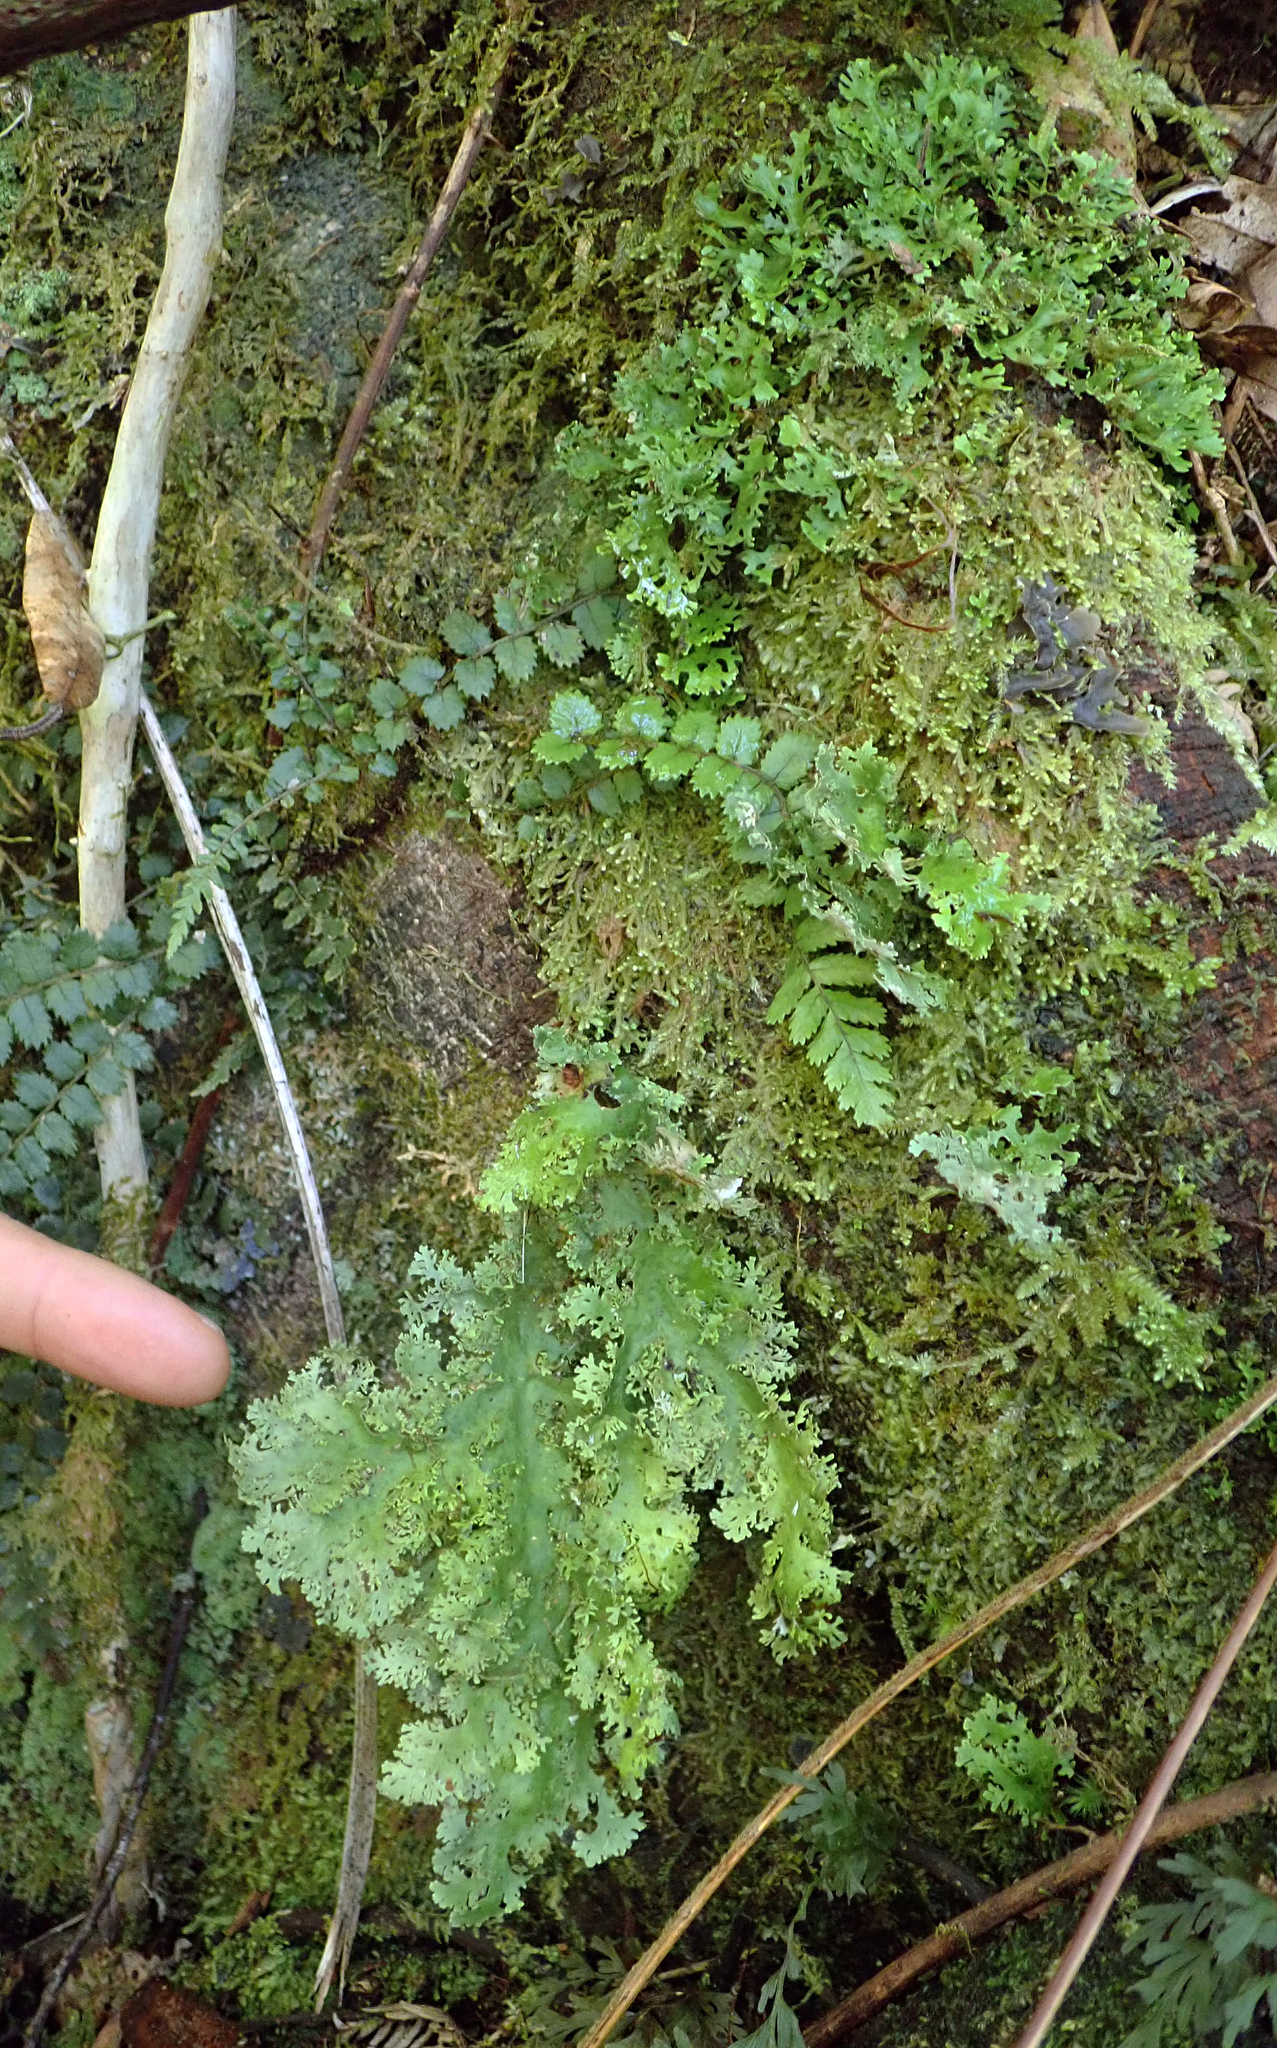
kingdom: Fungi
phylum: Ascomycota
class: Lecanoromycetes
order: Peltigerales
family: Lobariaceae
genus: Sticta
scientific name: Sticta
